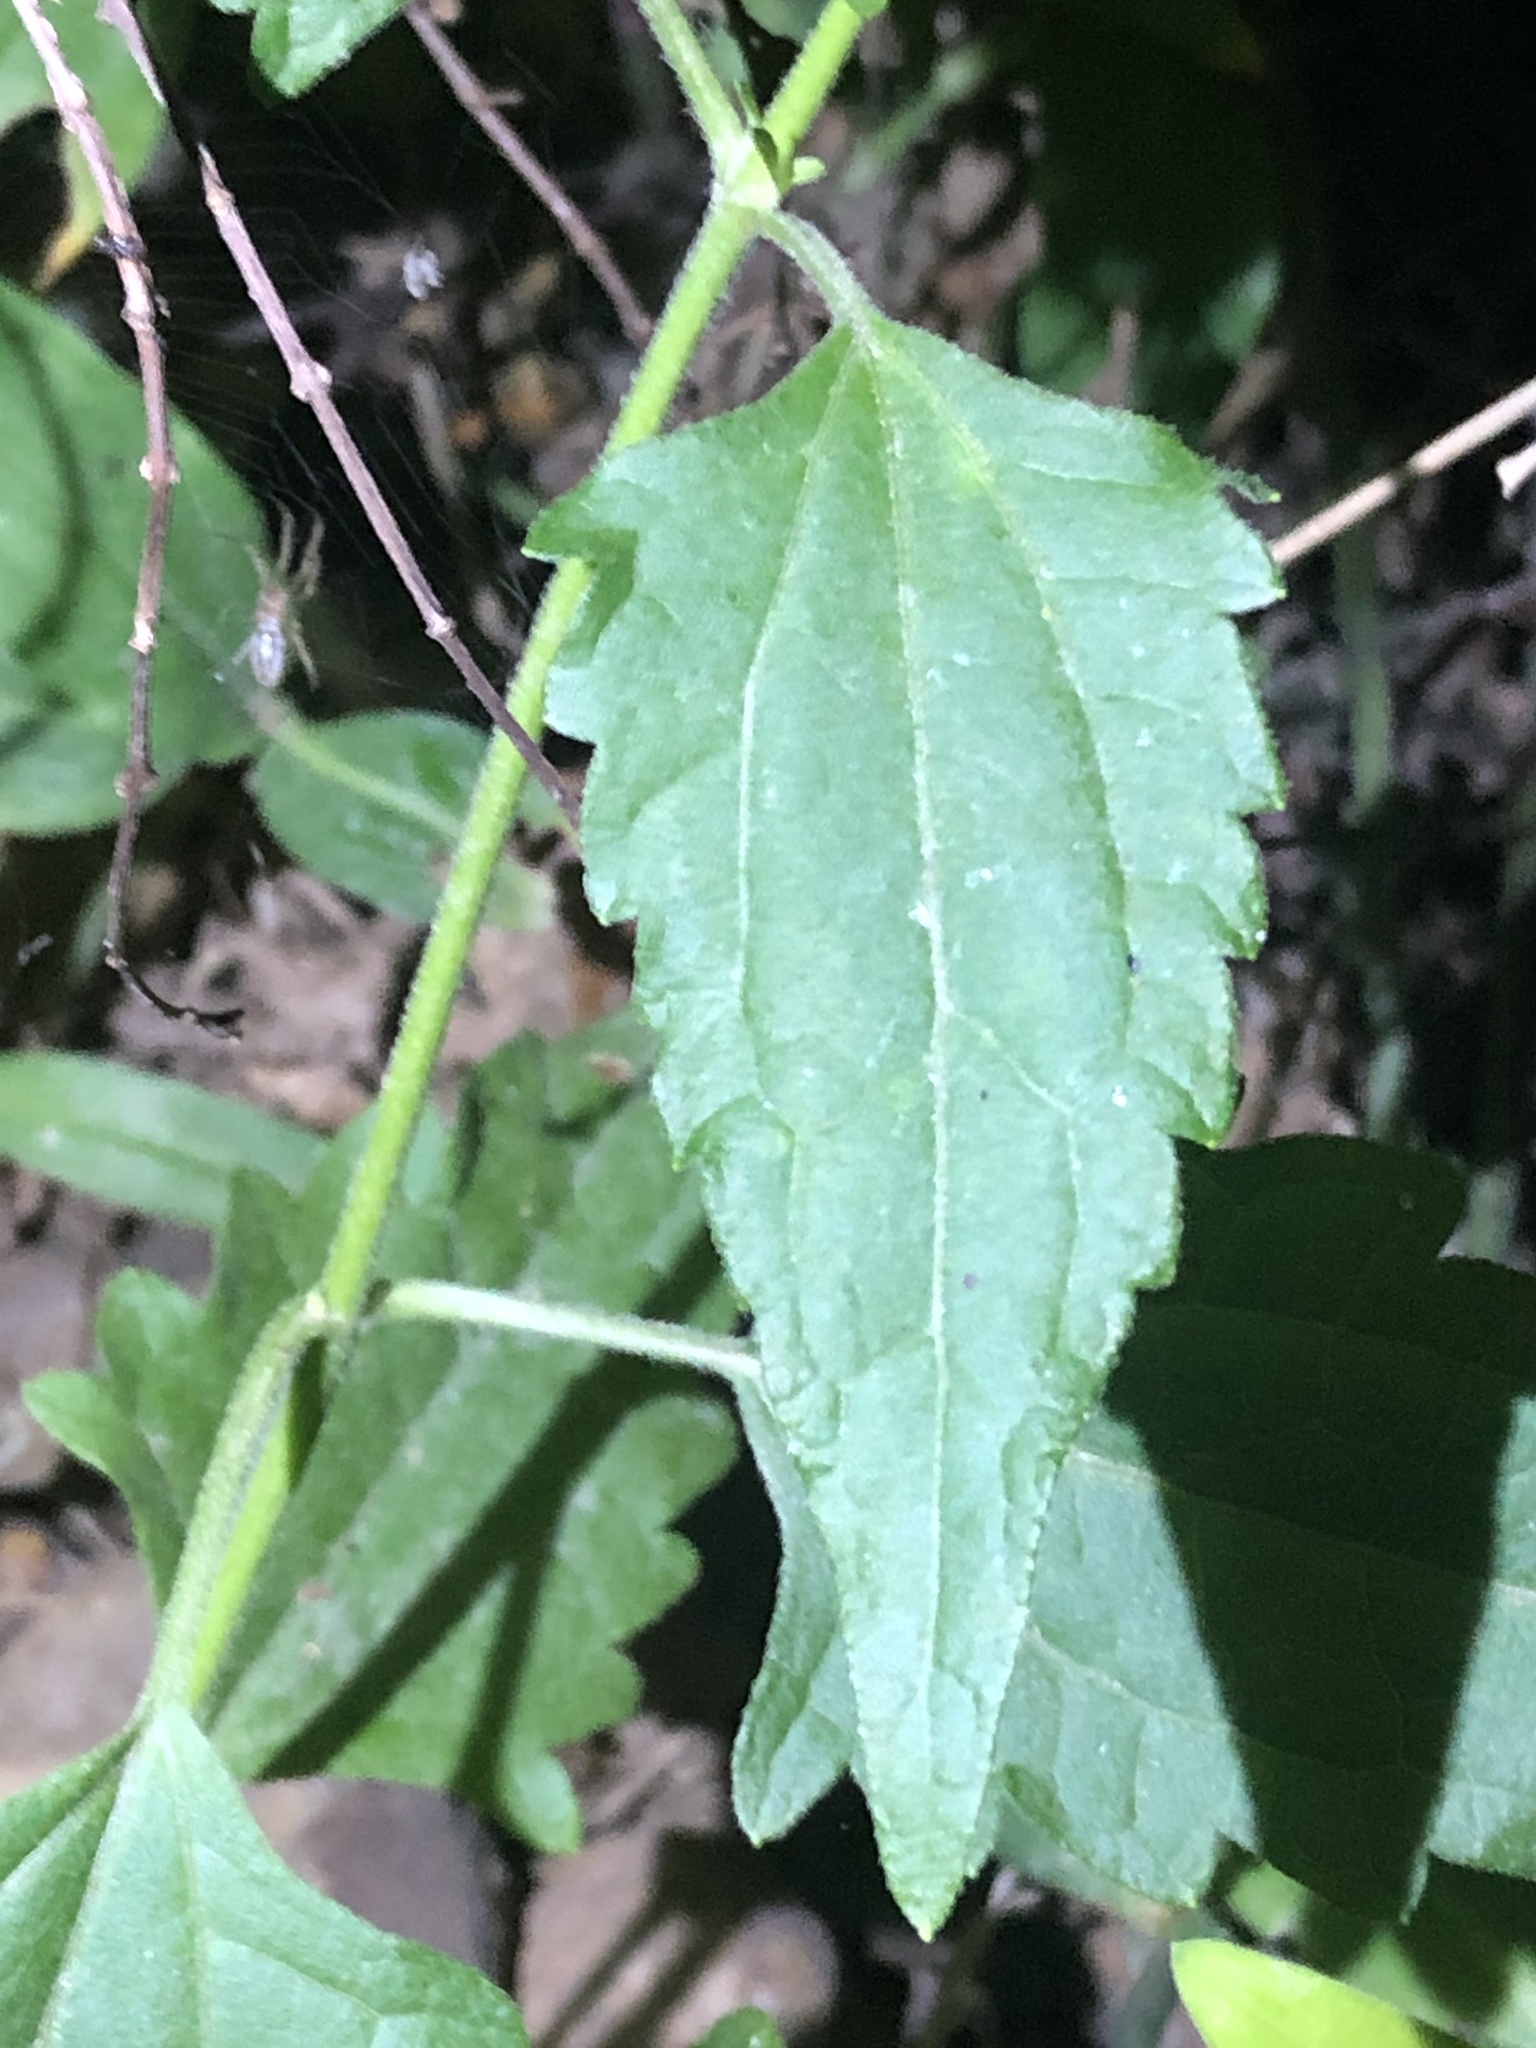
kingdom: Plantae
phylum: Tracheophyta
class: Magnoliopsida
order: Asterales
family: Asteraceae
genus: Chromolaena
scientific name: Chromolaena odorata
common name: Siamweed
